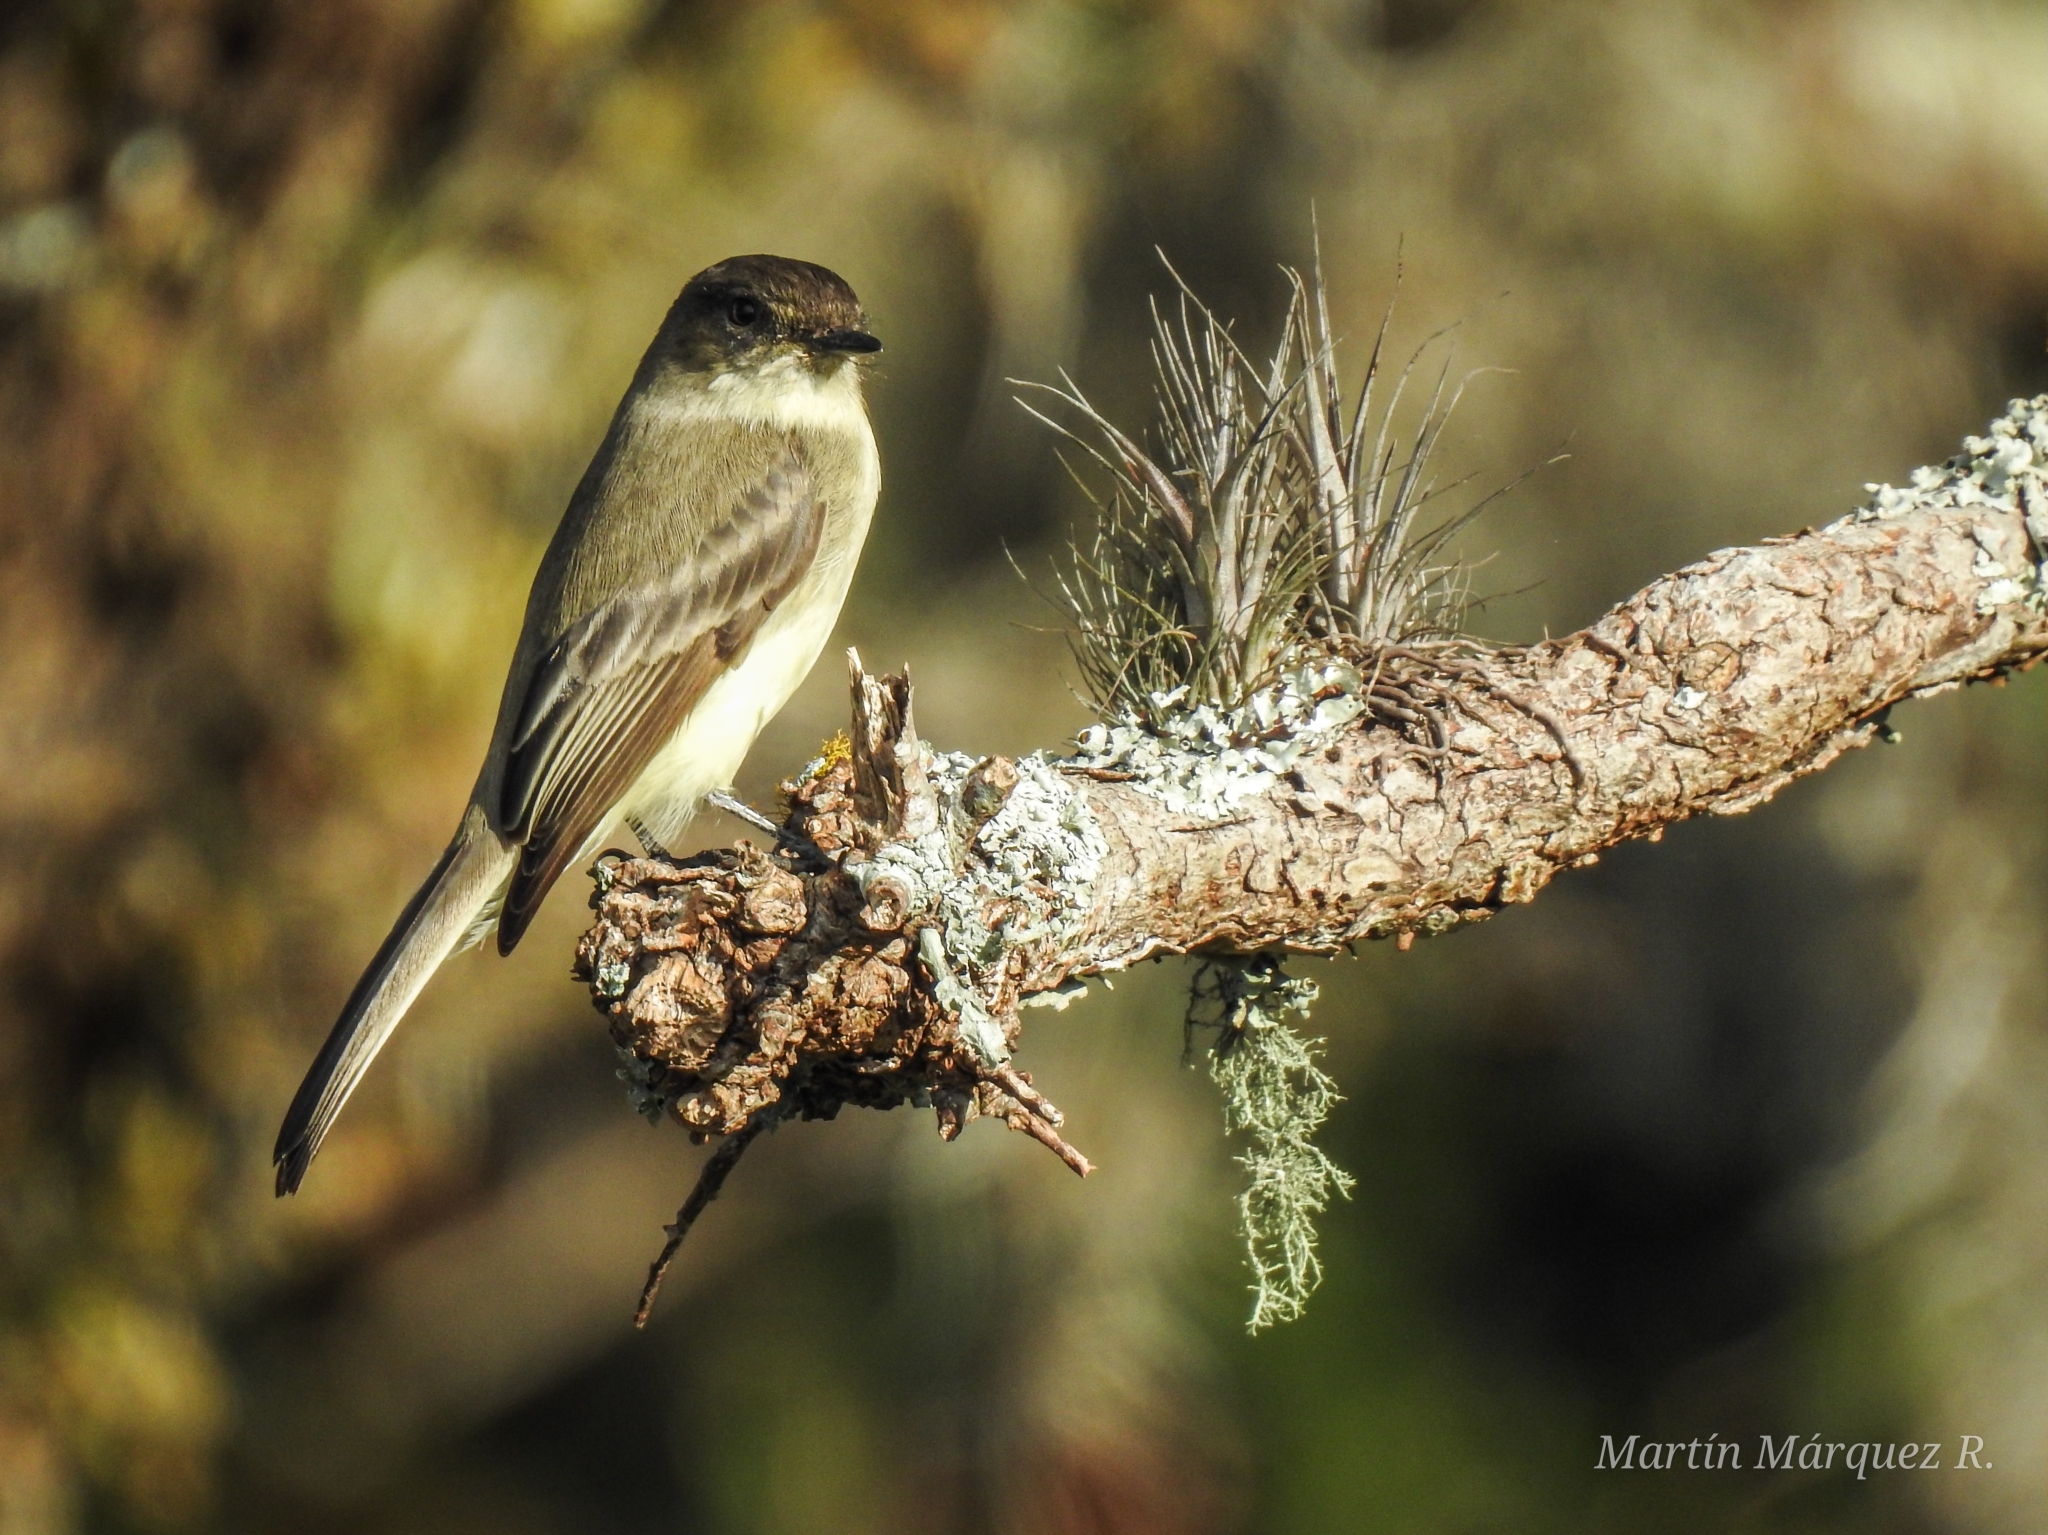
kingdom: Animalia
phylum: Chordata
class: Aves
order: Passeriformes
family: Tyrannidae
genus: Sayornis
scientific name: Sayornis phoebe
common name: Eastern phoebe
